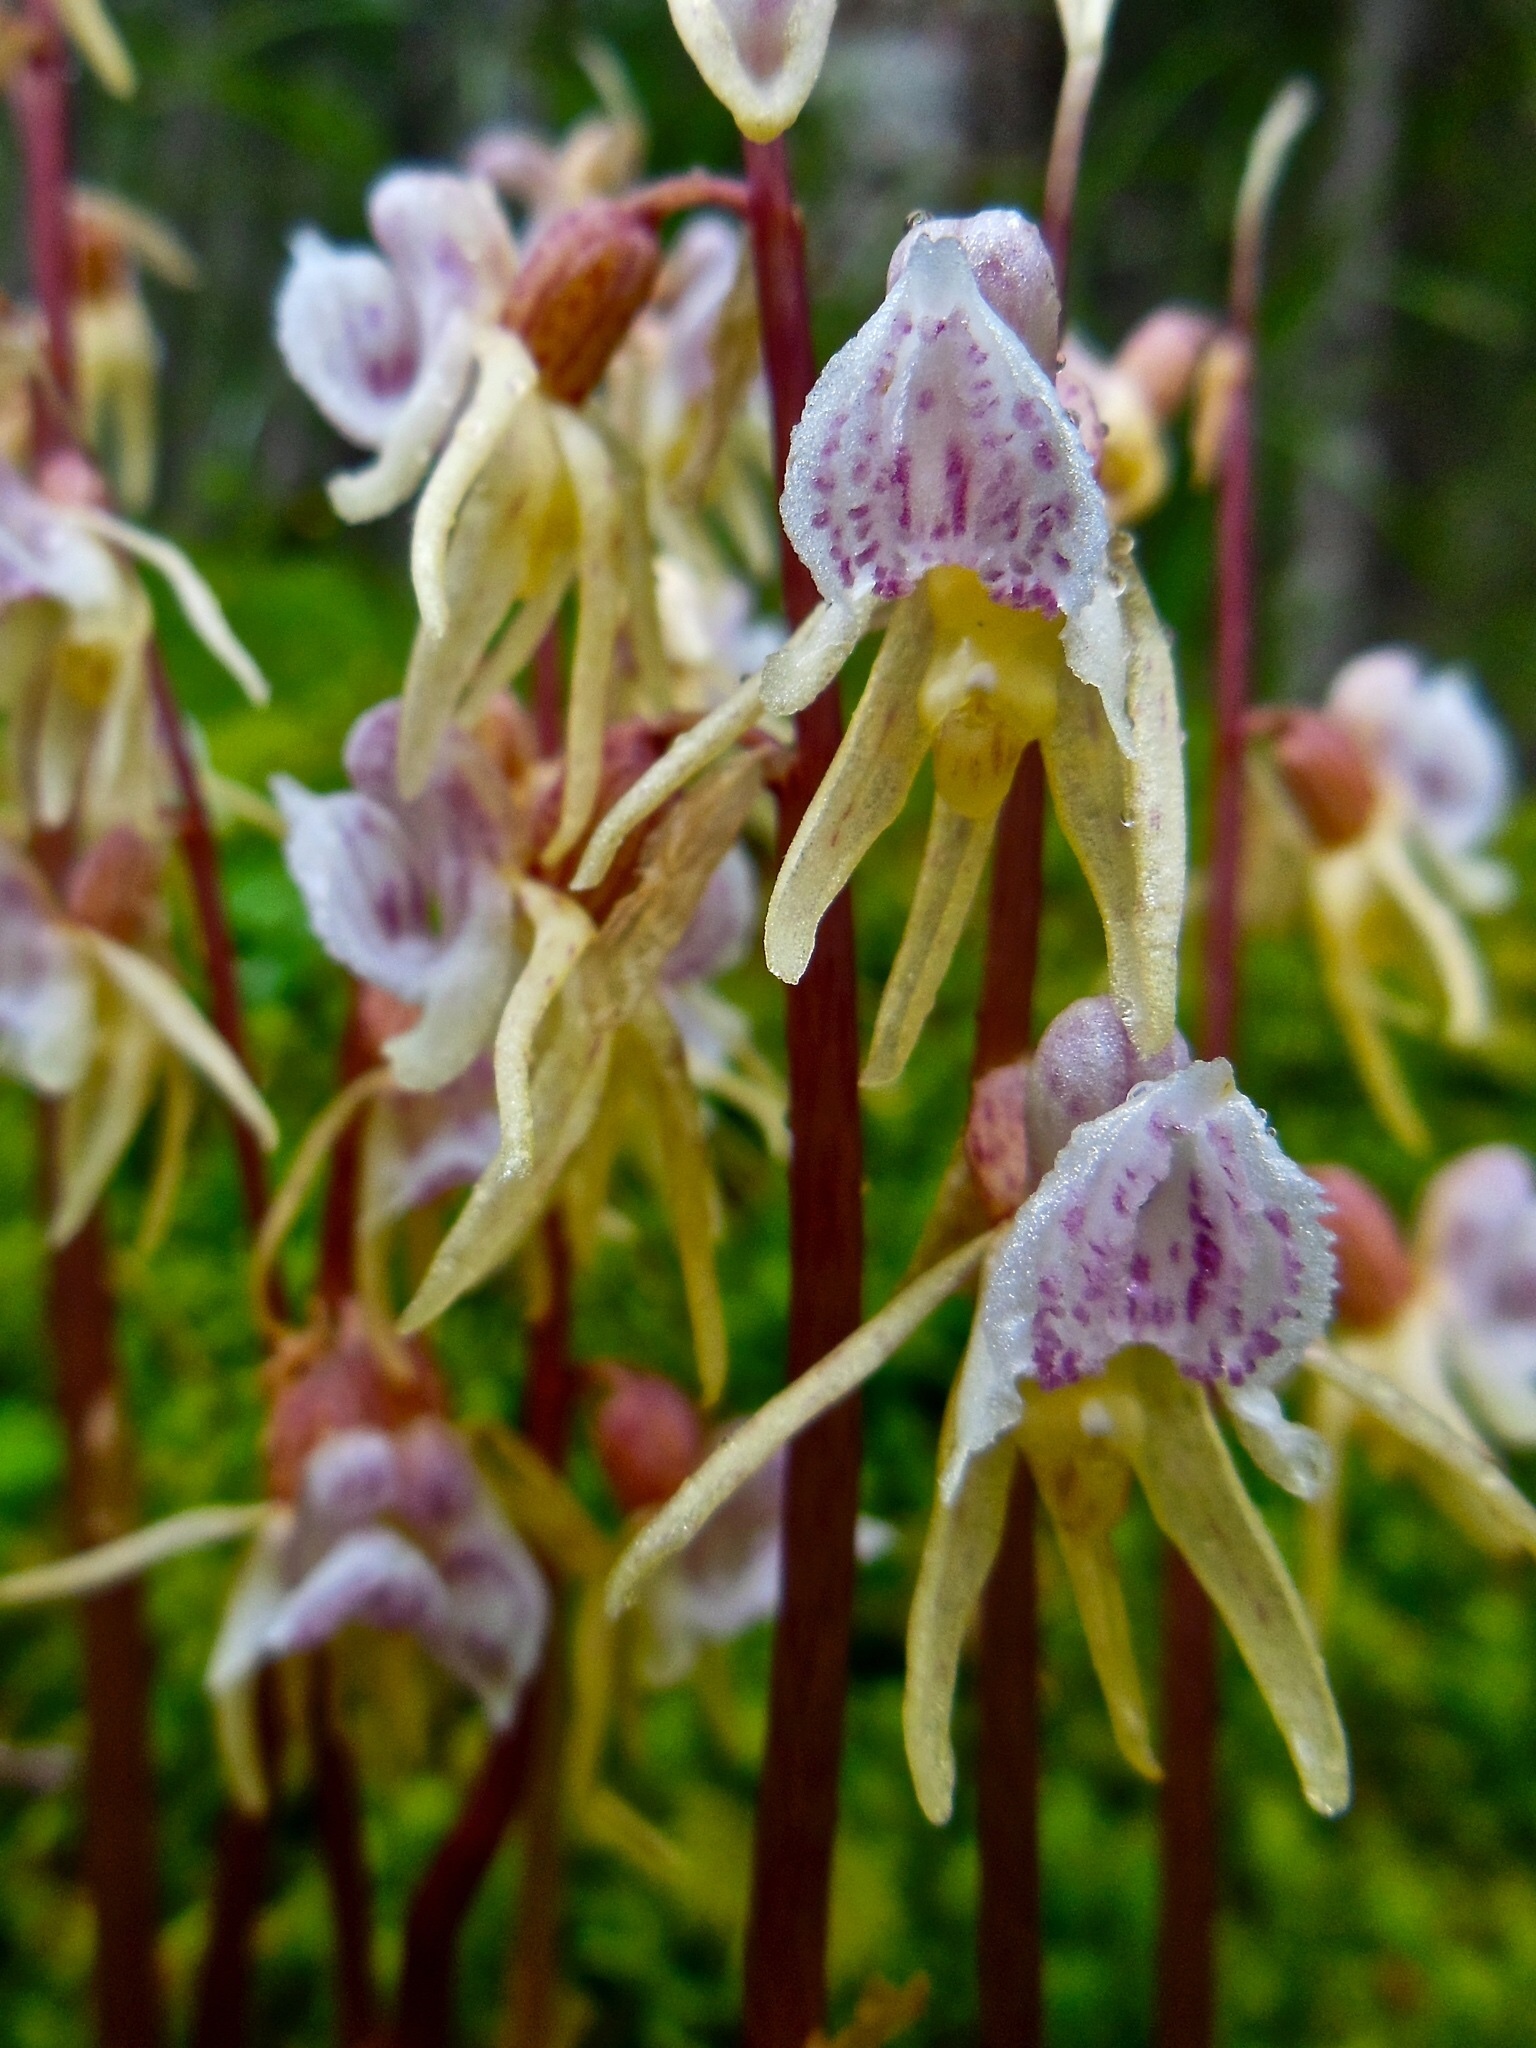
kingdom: Plantae
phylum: Tracheophyta
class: Liliopsida
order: Asparagales
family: Orchidaceae
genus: Epipogium
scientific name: Epipogium aphyllum
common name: Ghost orchid
